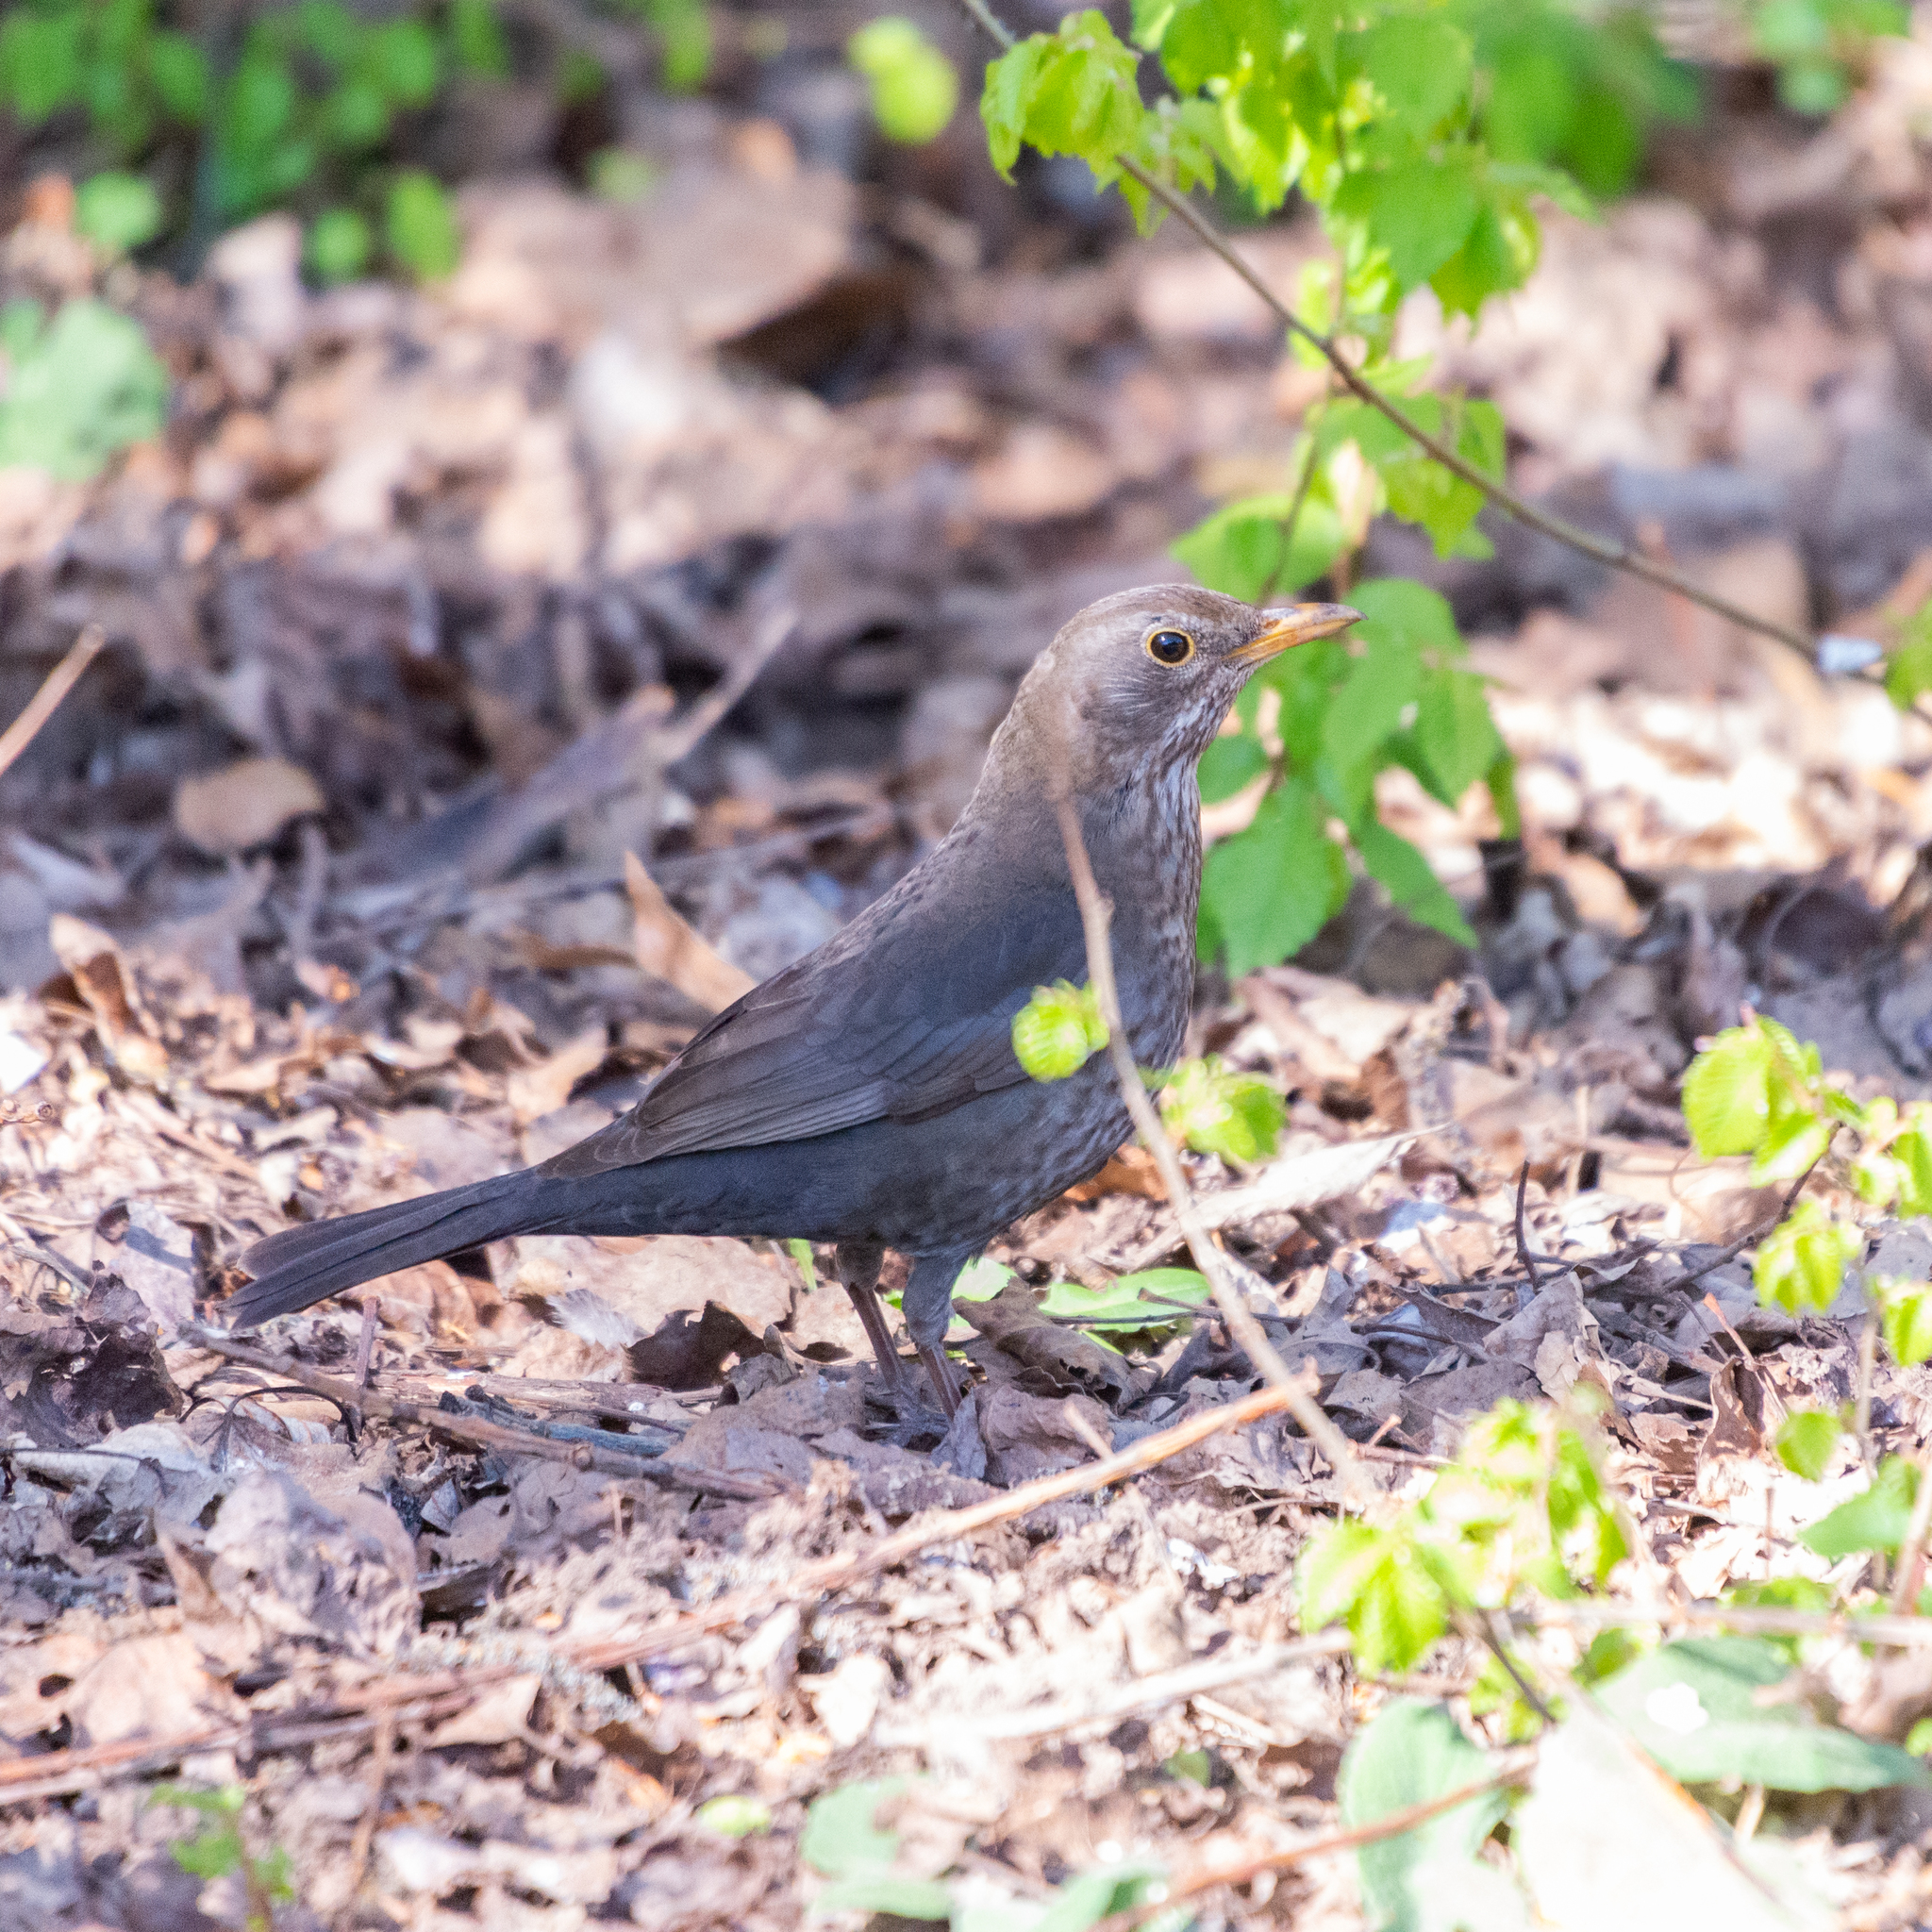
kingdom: Animalia
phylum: Chordata
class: Aves
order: Passeriformes
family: Turdidae
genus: Turdus
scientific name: Turdus merula
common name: Common blackbird
